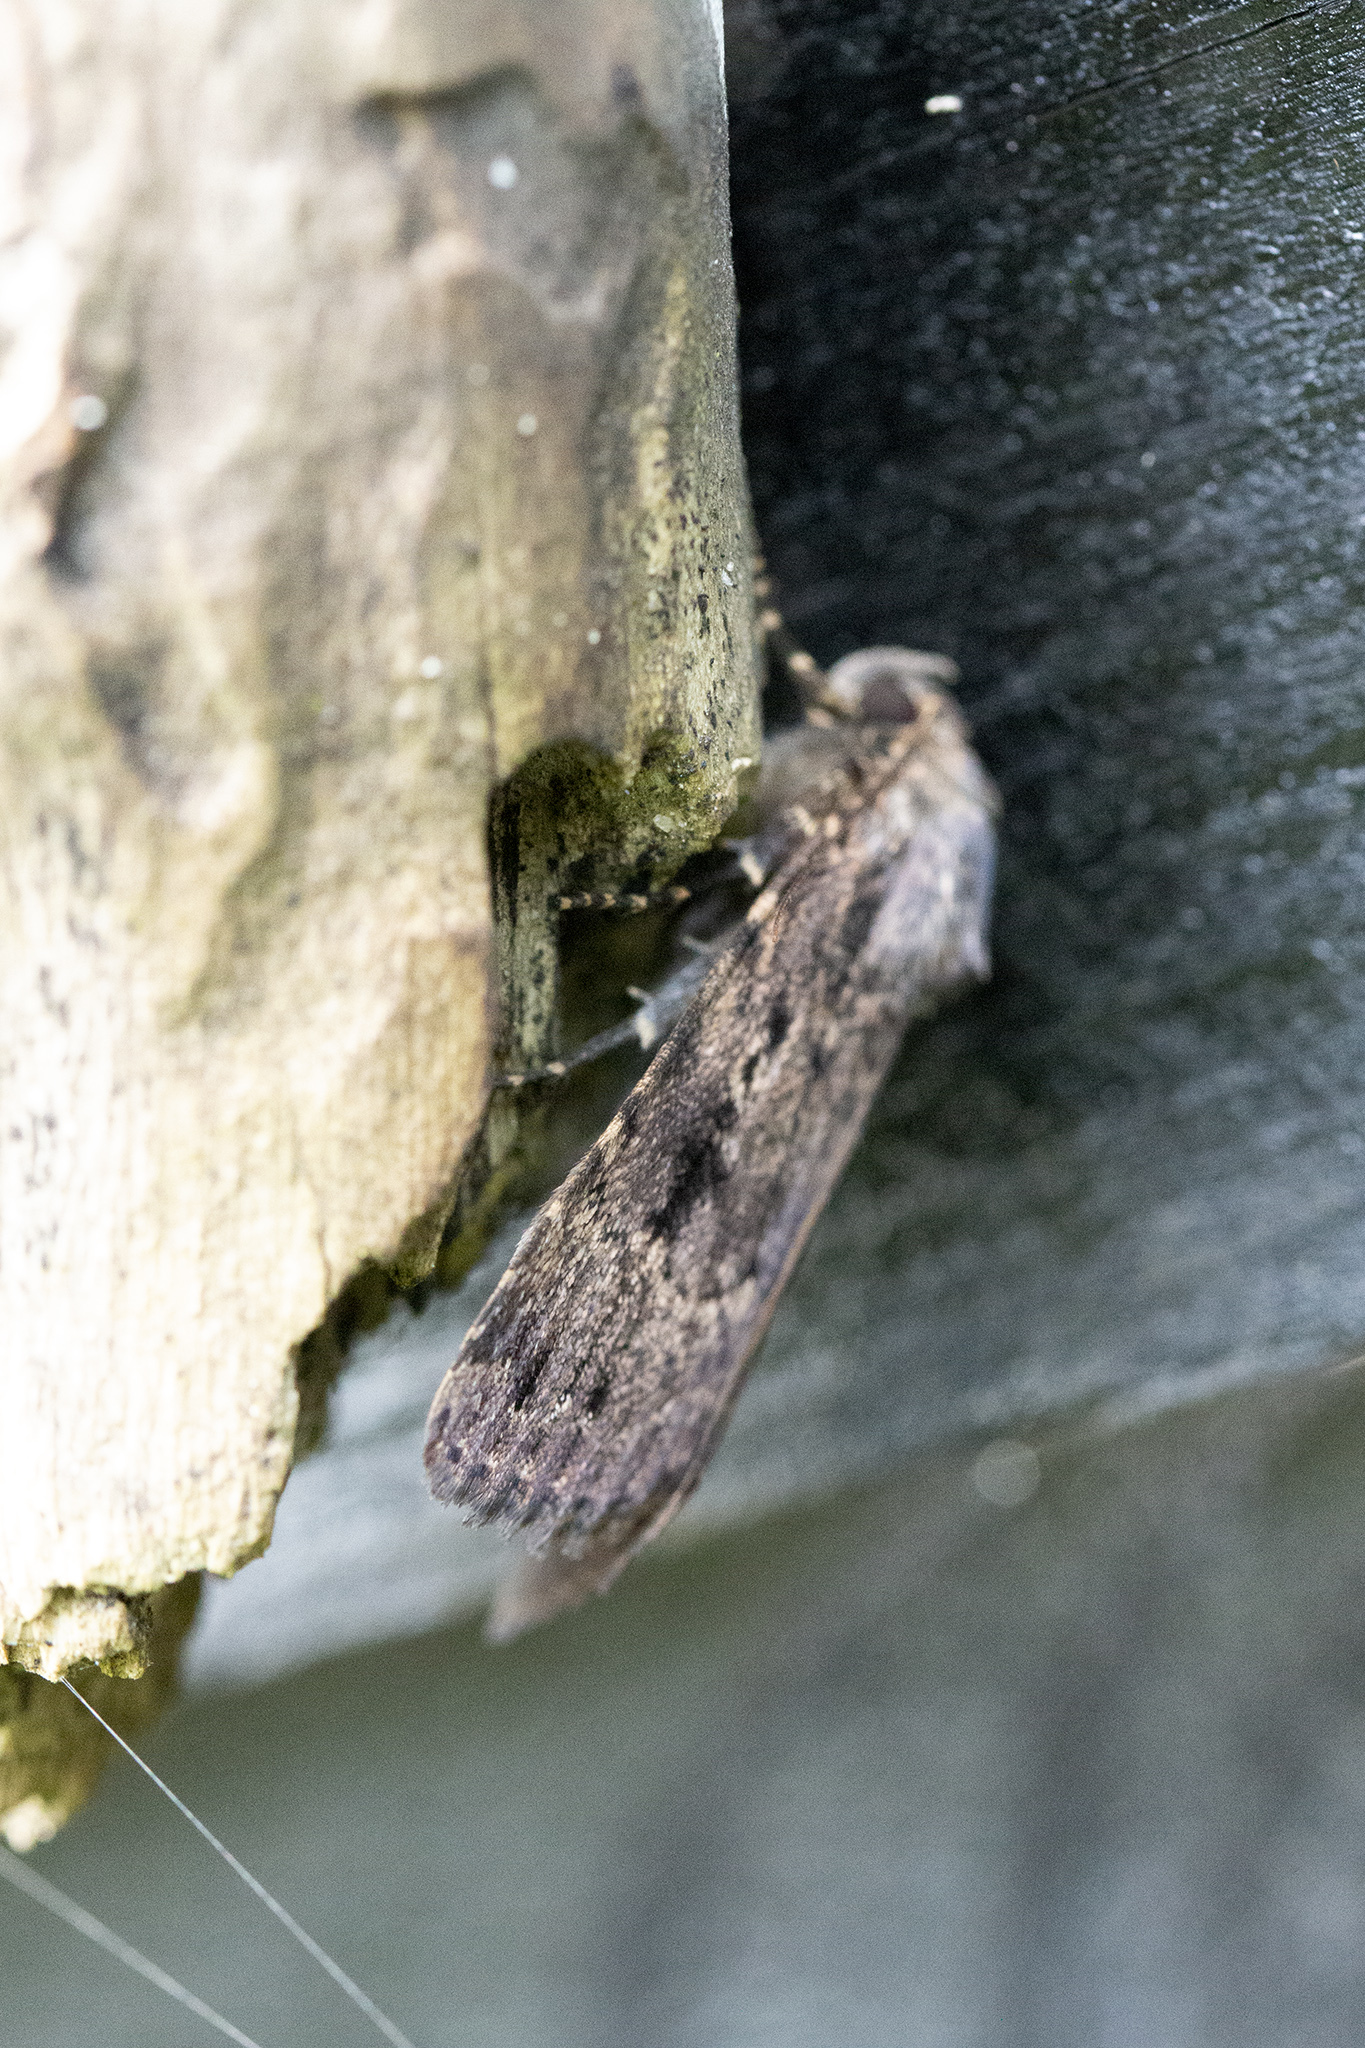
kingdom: Animalia
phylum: Arthropoda
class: Insecta
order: Lepidoptera
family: Noctuidae
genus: Amphipyra
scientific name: Amphipyra pyramidea
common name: Copper underwing
